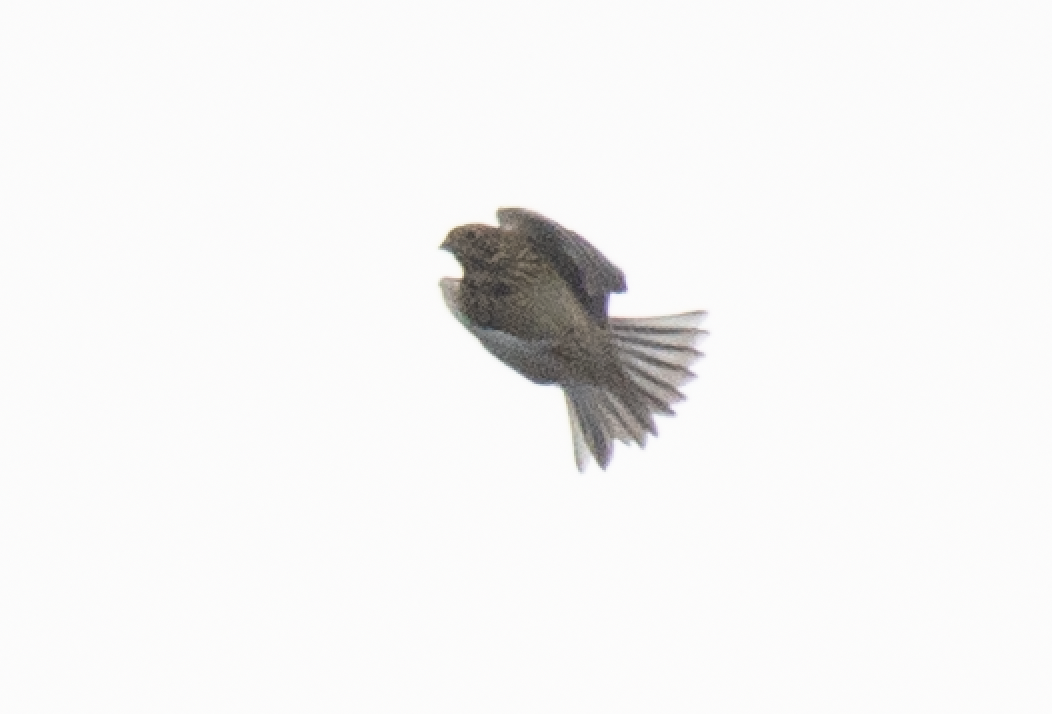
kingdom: Animalia
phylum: Chordata
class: Aves
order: Passeriformes
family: Emberizidae
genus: Emberiza
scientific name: Emberiza calandra
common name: Corn bunting
